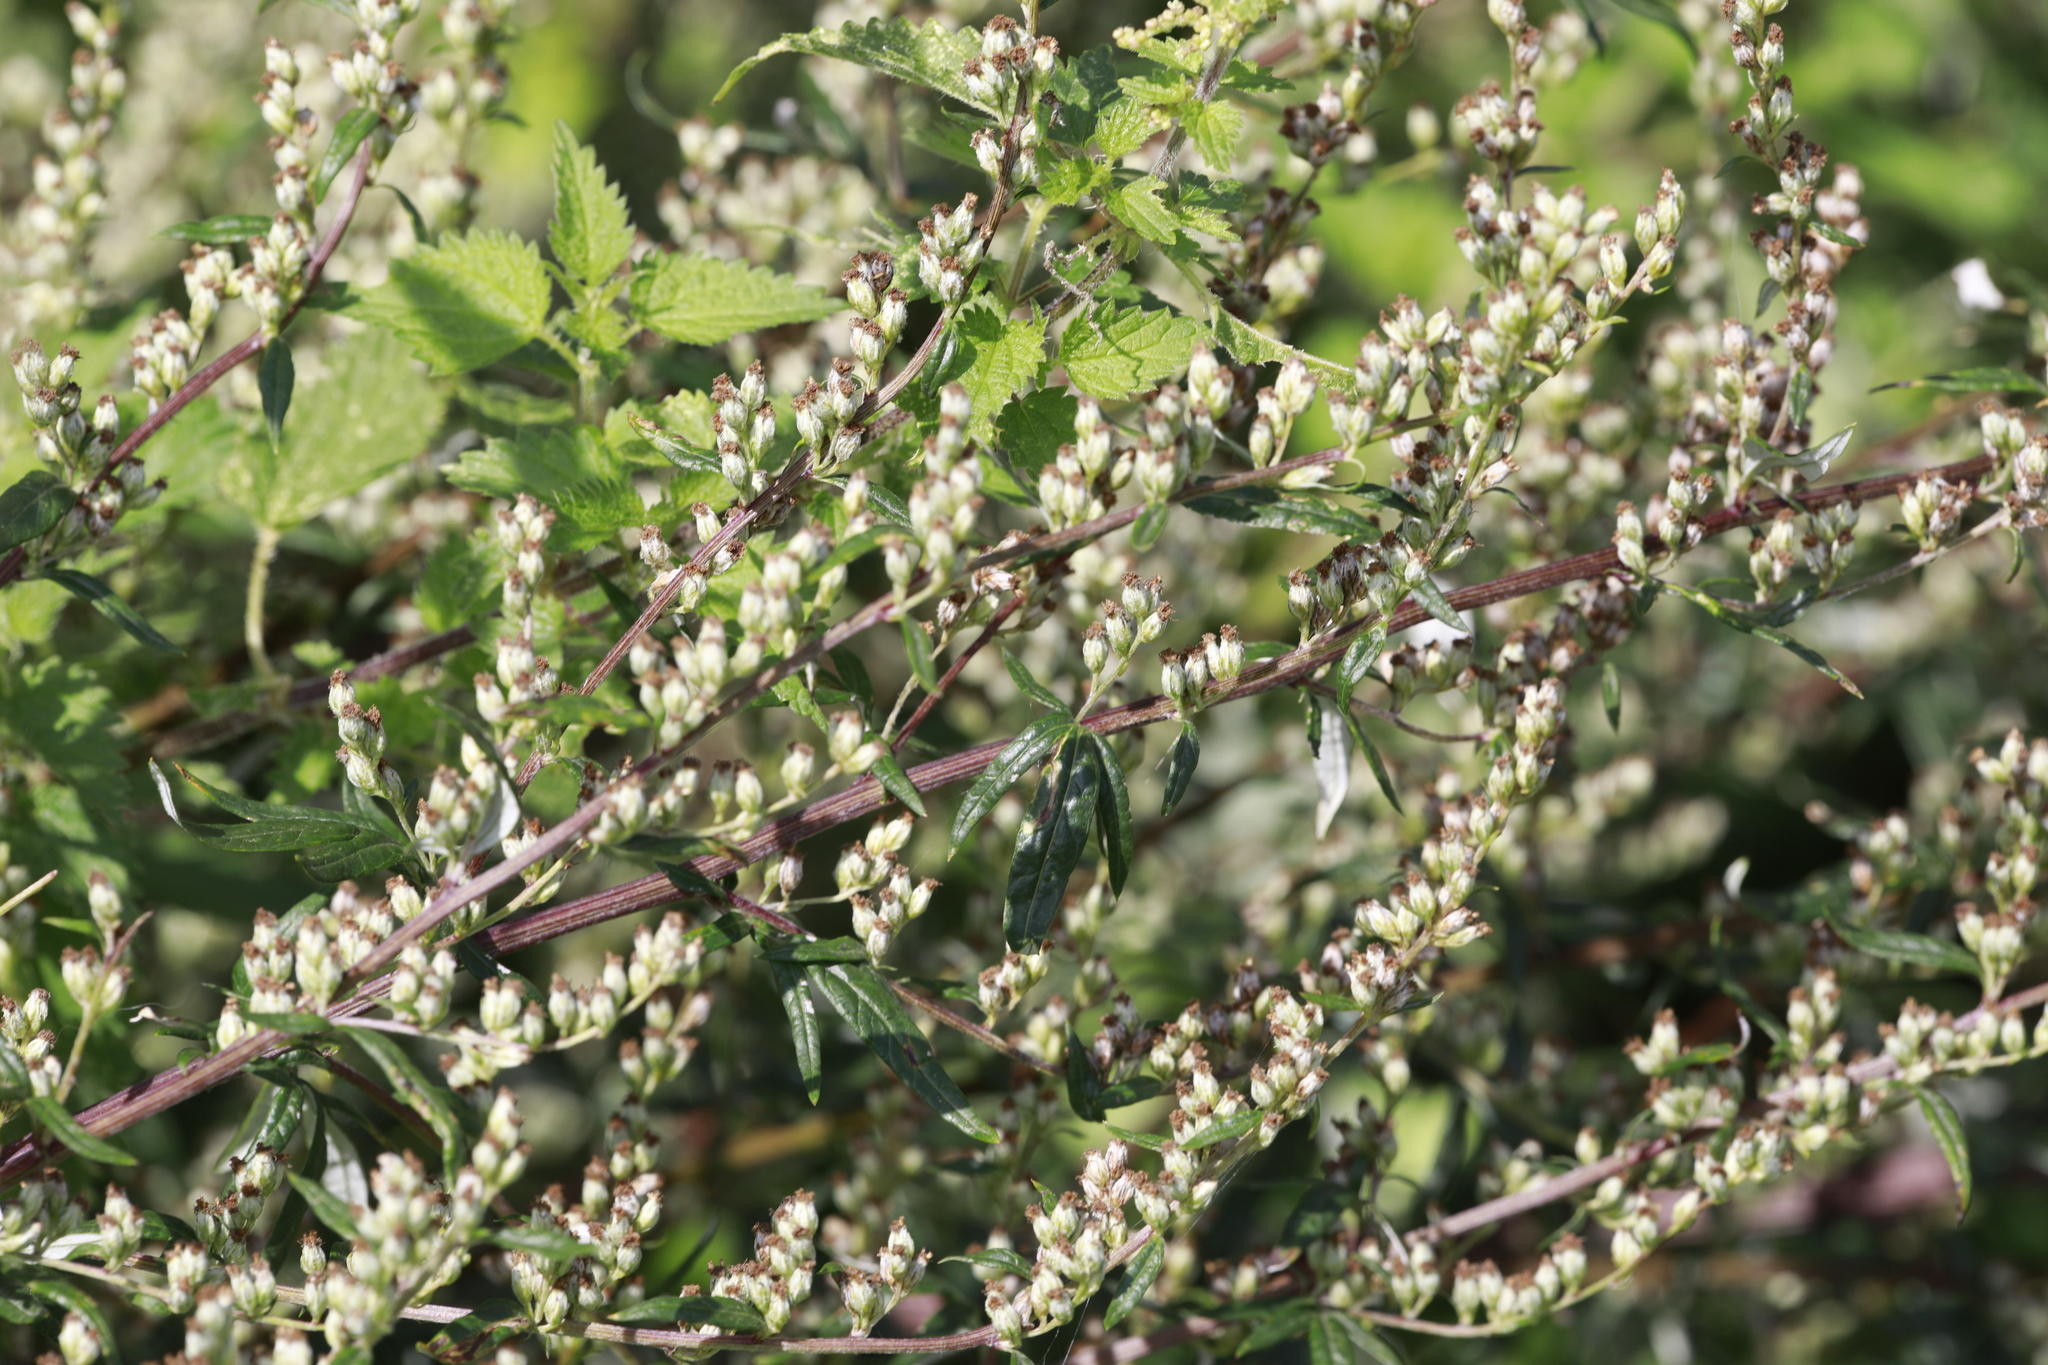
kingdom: Plantae
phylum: Tracheophyta
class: Magnoliopsida
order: Asterales
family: Asteraceae
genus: Artemisia
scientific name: Artemisia vulgaris
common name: Mugwort
